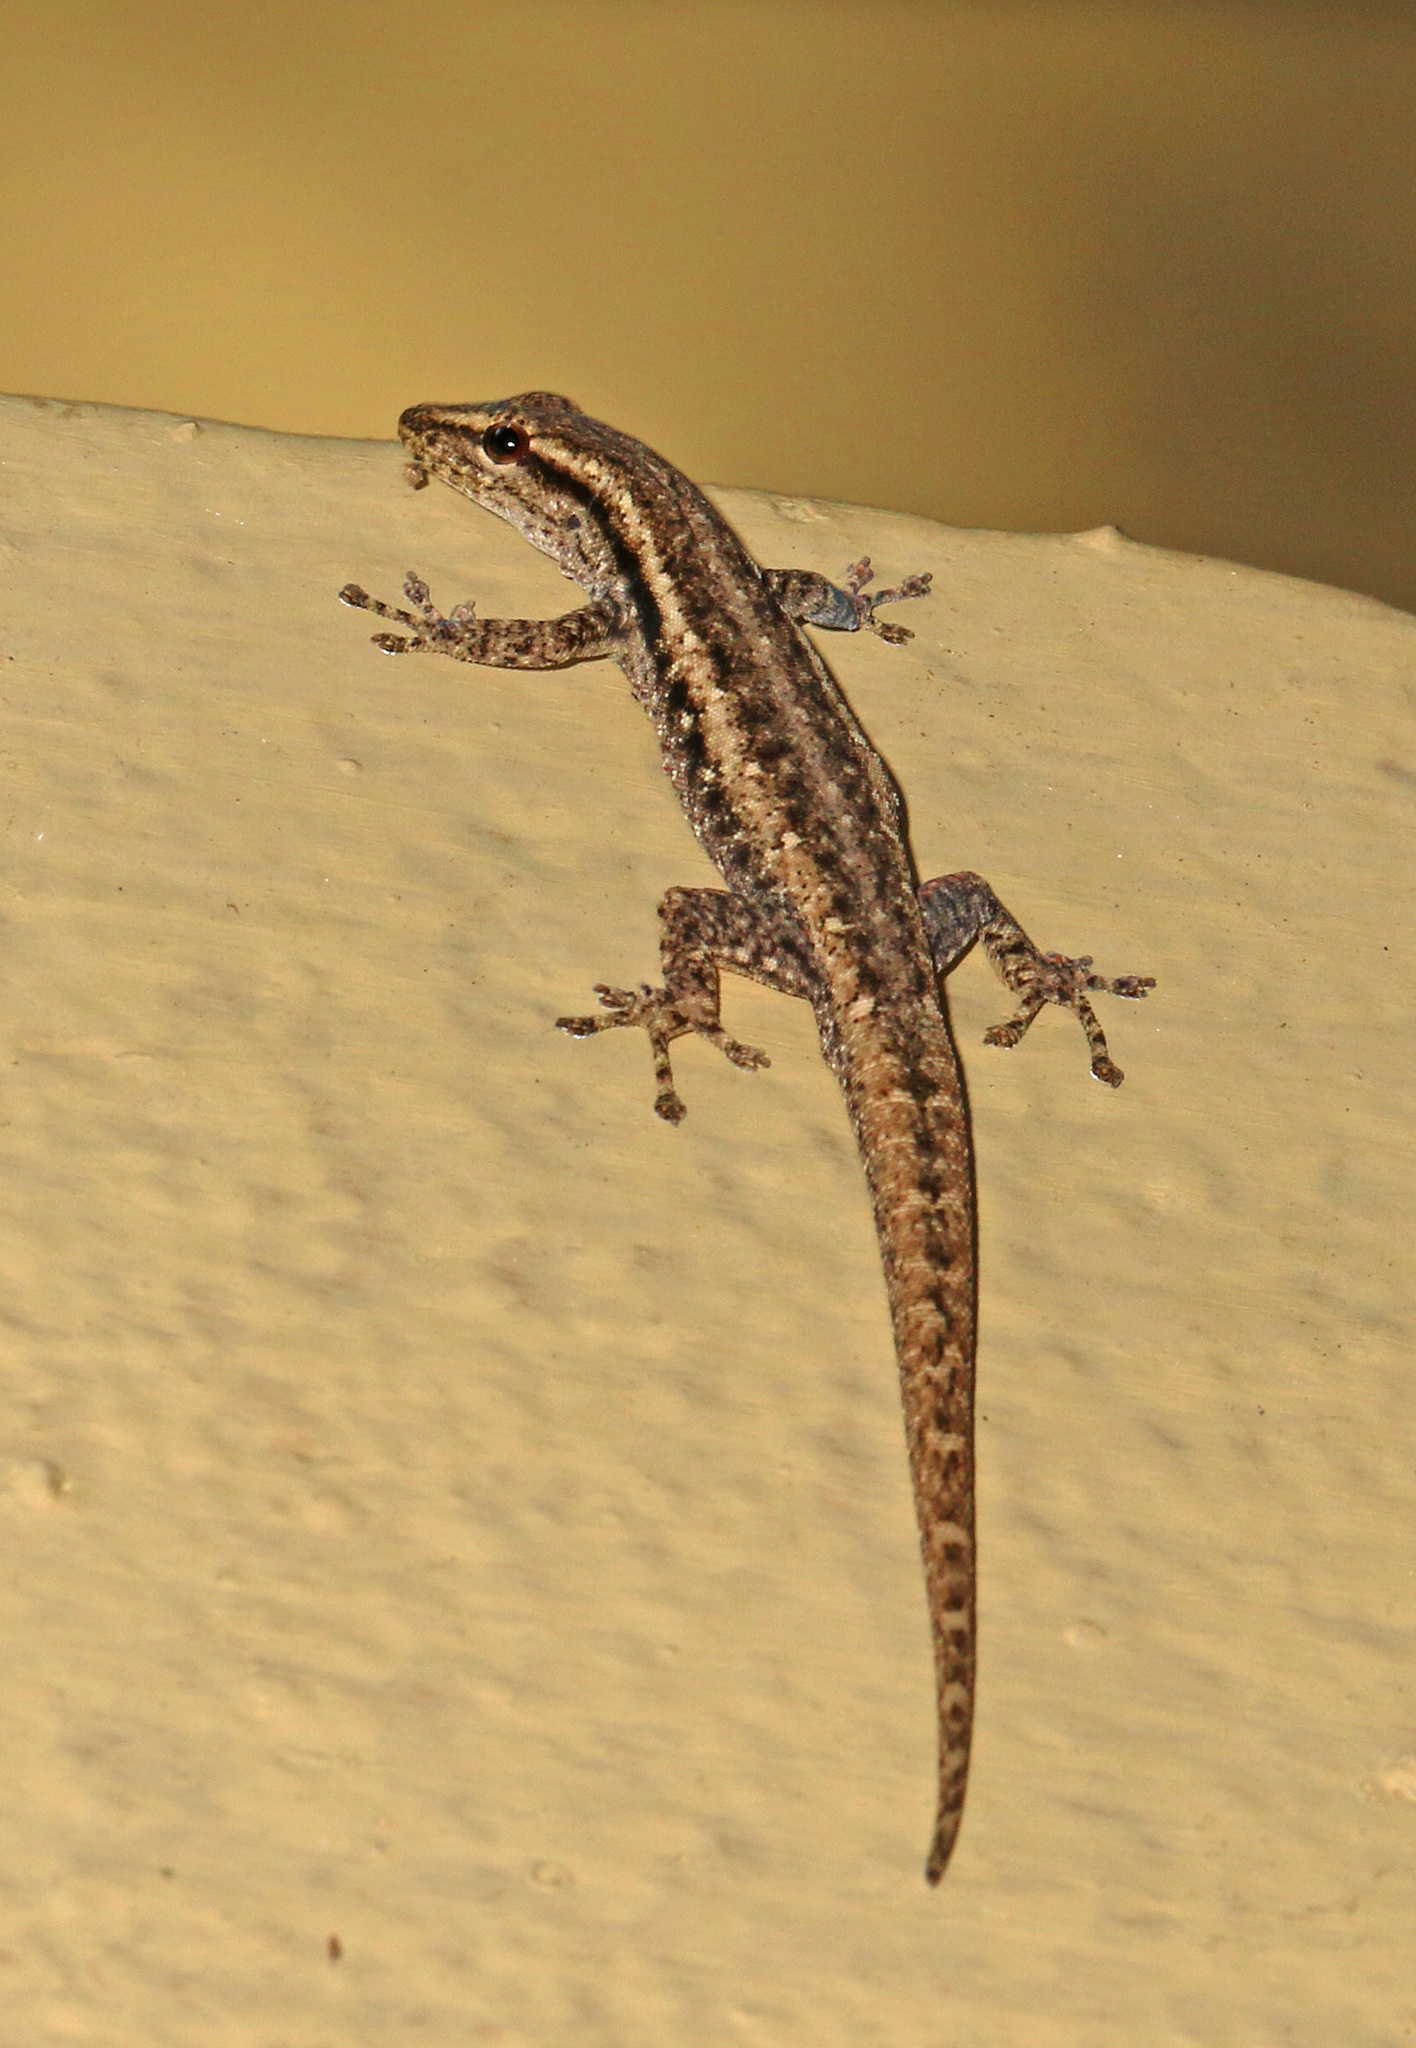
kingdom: Animalia
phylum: Chordata
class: Squamata
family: Gekkonidae
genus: Lygodactylus
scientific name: Lygodactylus capensis
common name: Cape dwarf gecko
